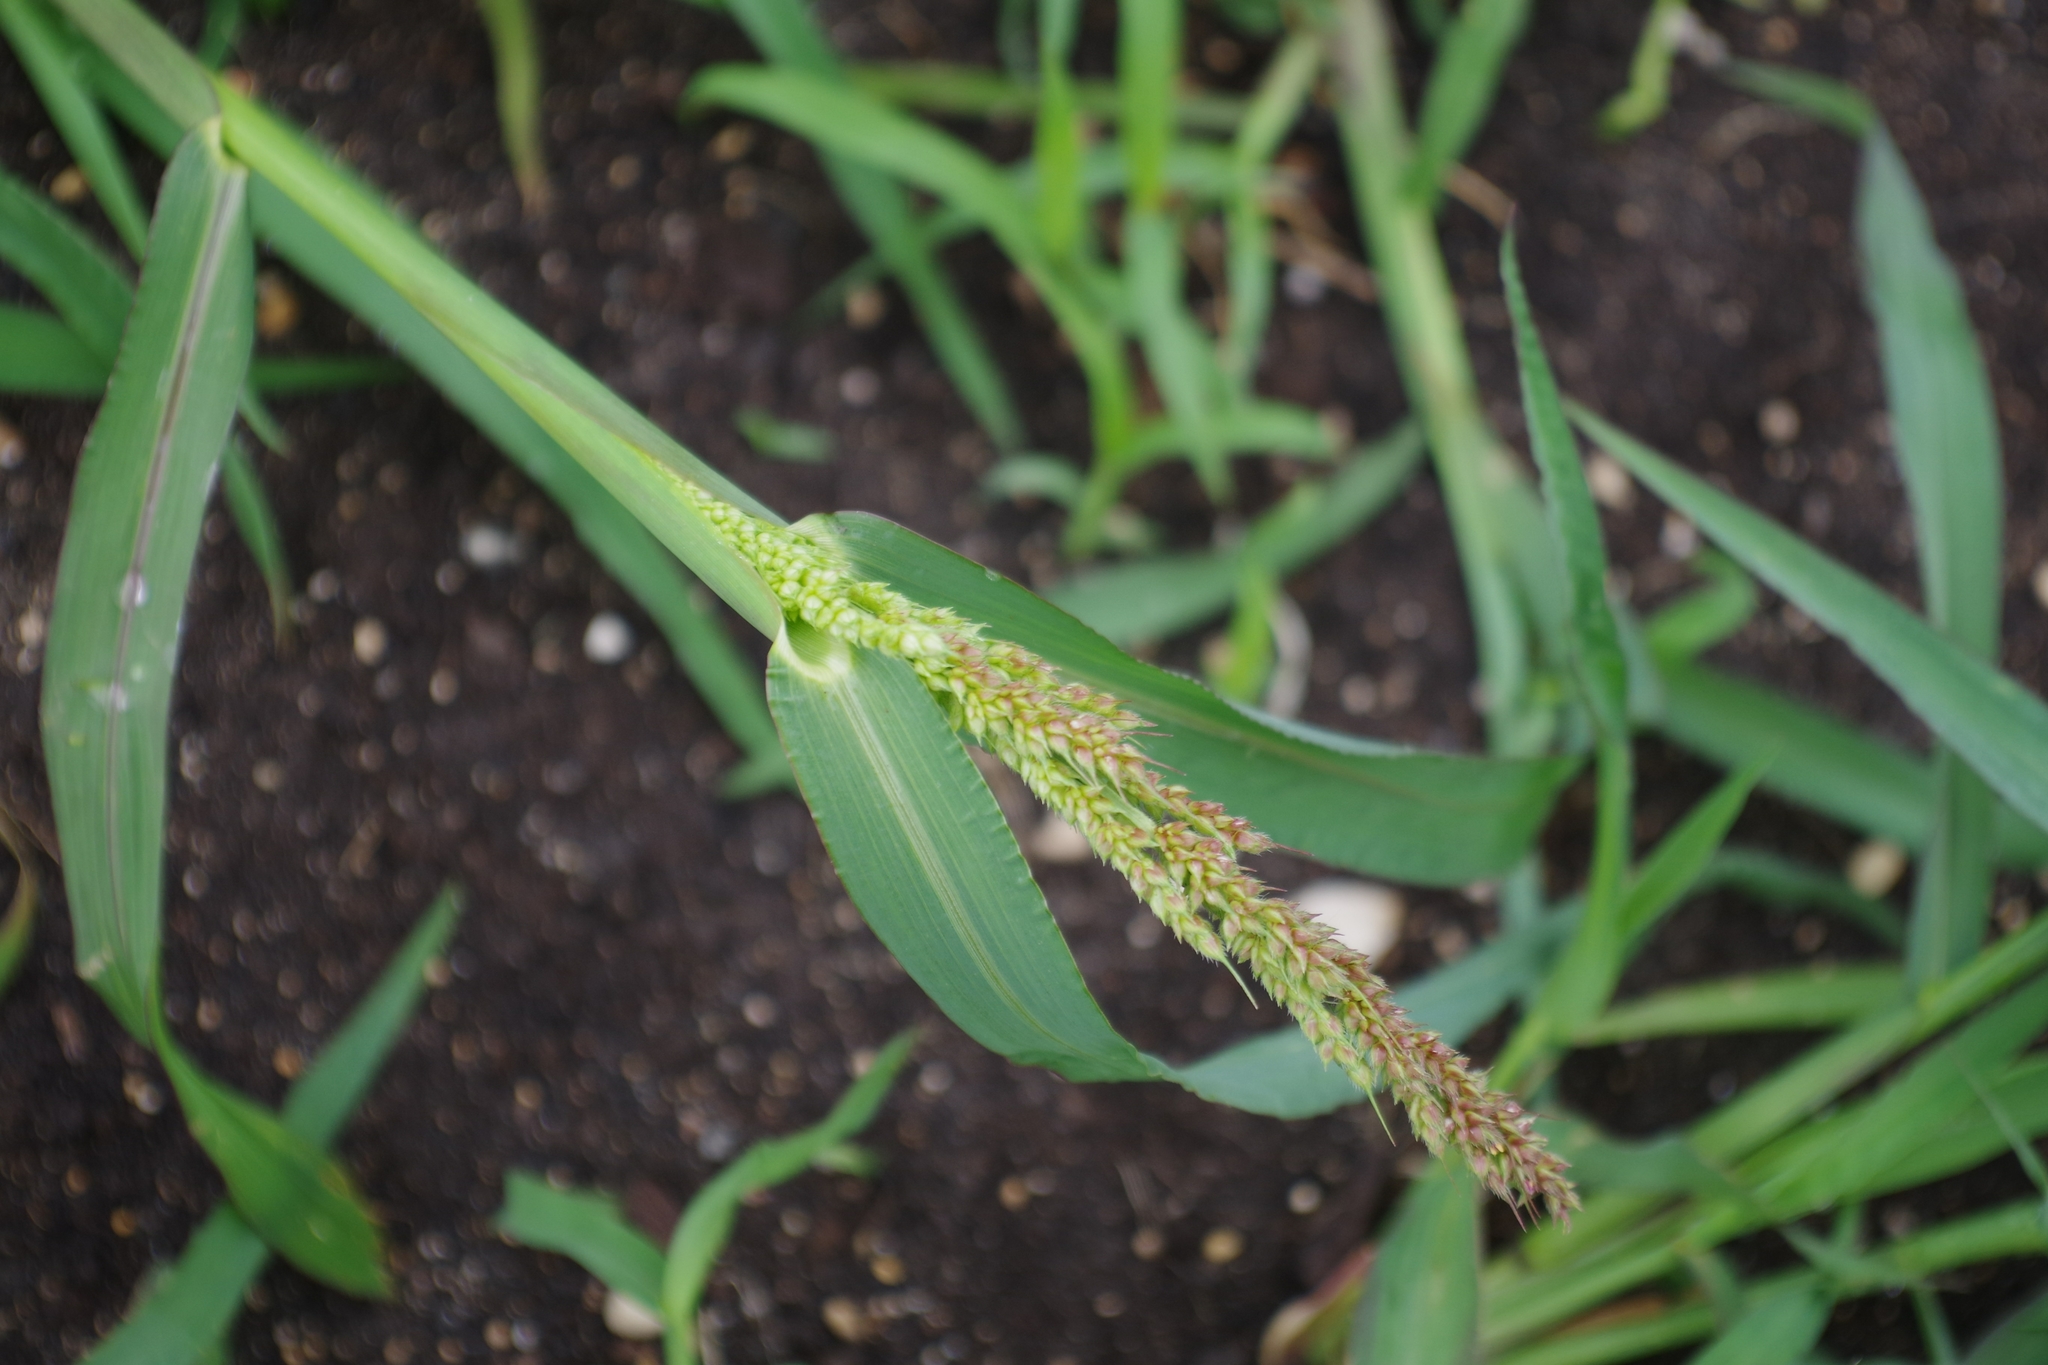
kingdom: Plantae
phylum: Tracheophyta
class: Liliopsida
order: Poales
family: Poaceae
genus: Echinochloa
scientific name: Echinochloa crus-galli
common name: Cockspur
